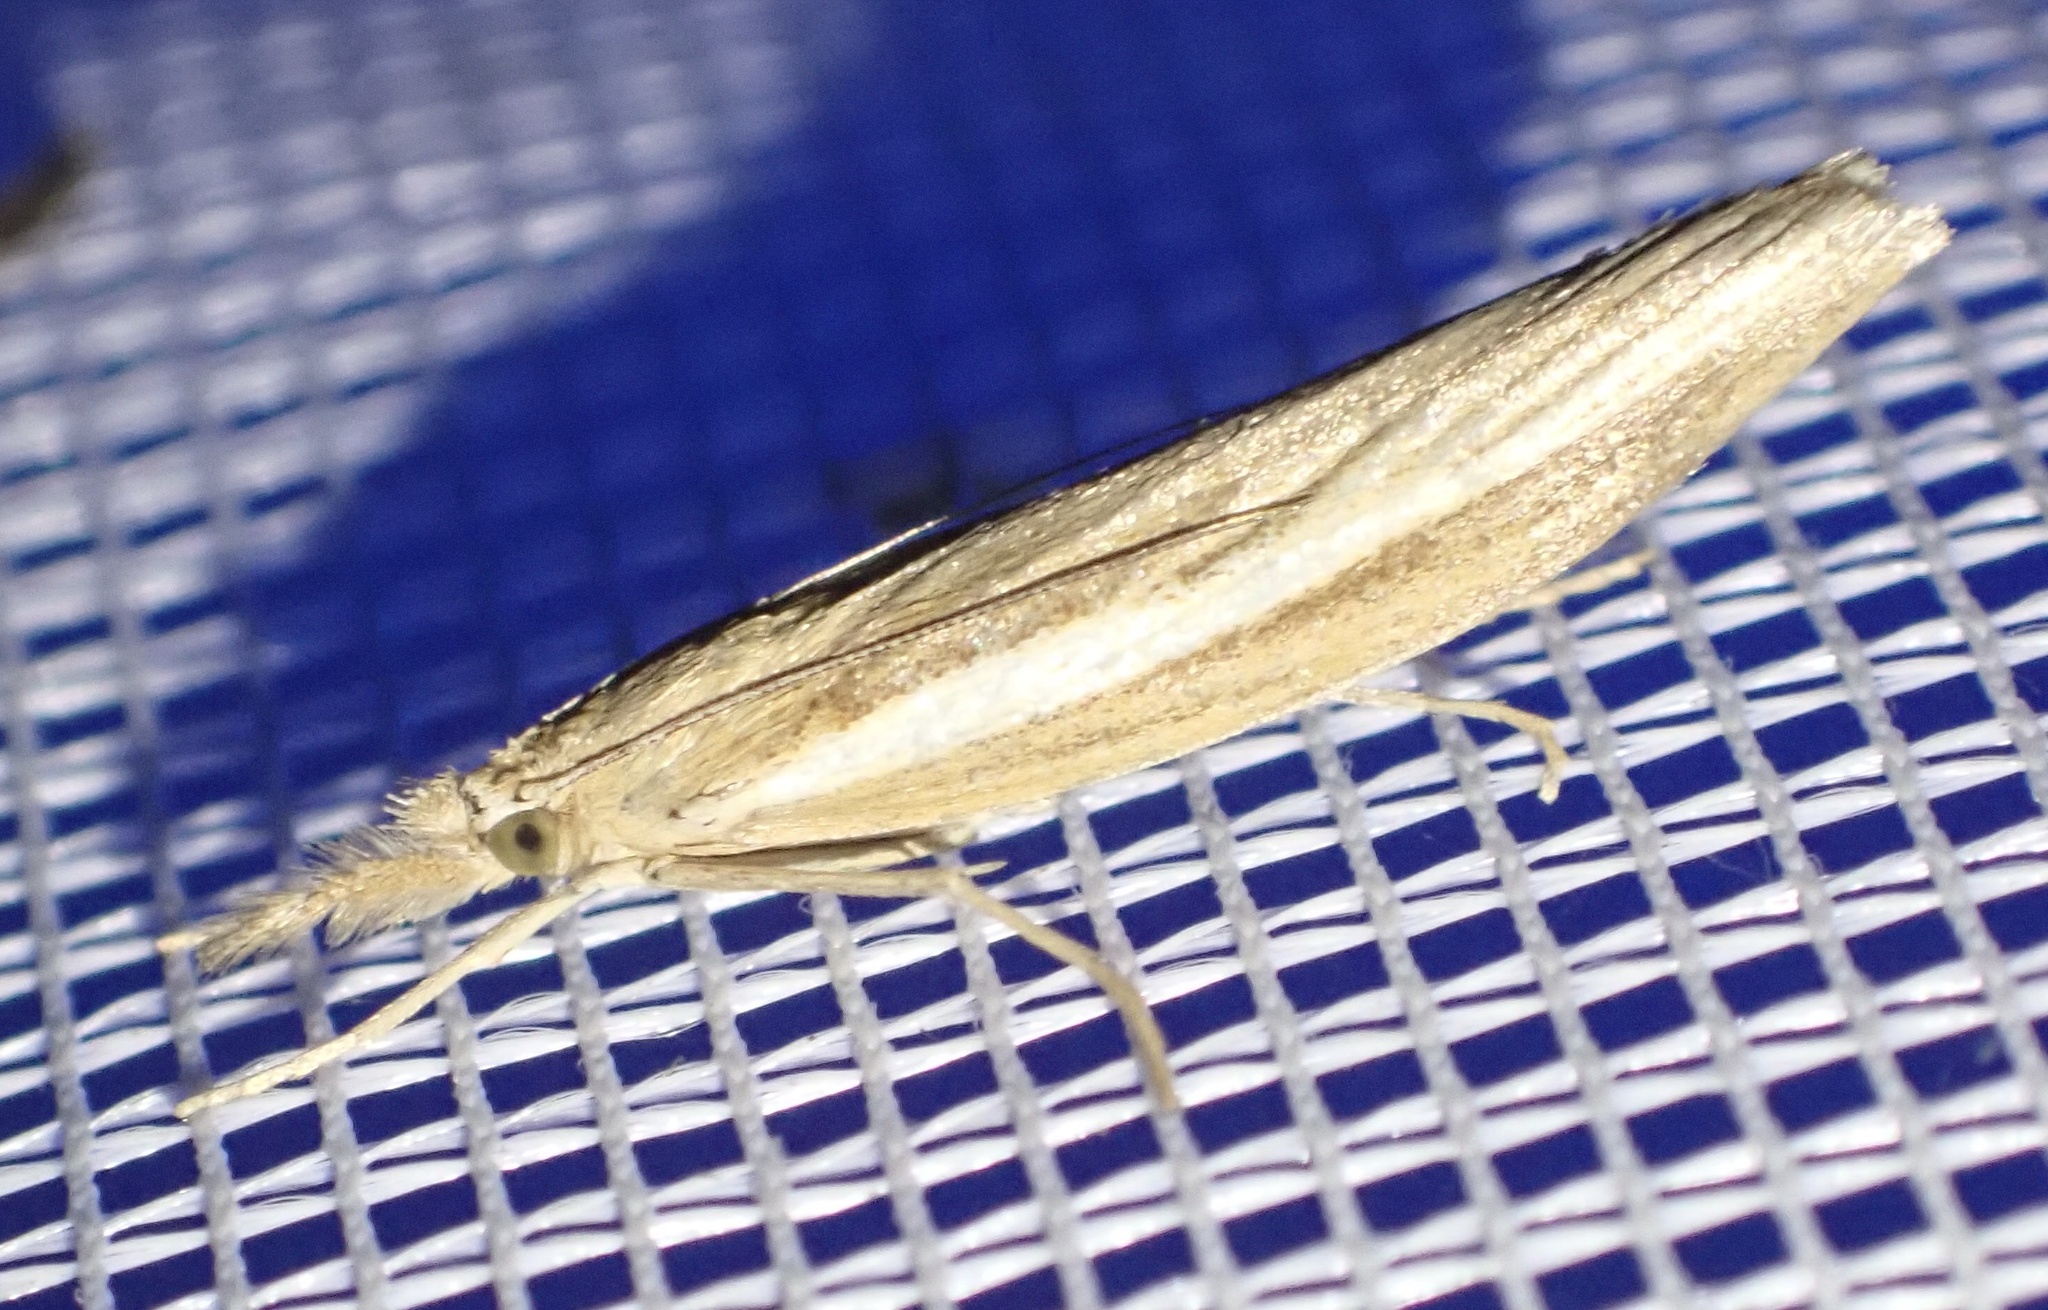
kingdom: Animalia
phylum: Arthropoda
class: Insecta
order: Lepidoptera
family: Crambidae
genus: Agriphila
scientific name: Agriphila tristellus
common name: Common grass-veneer
